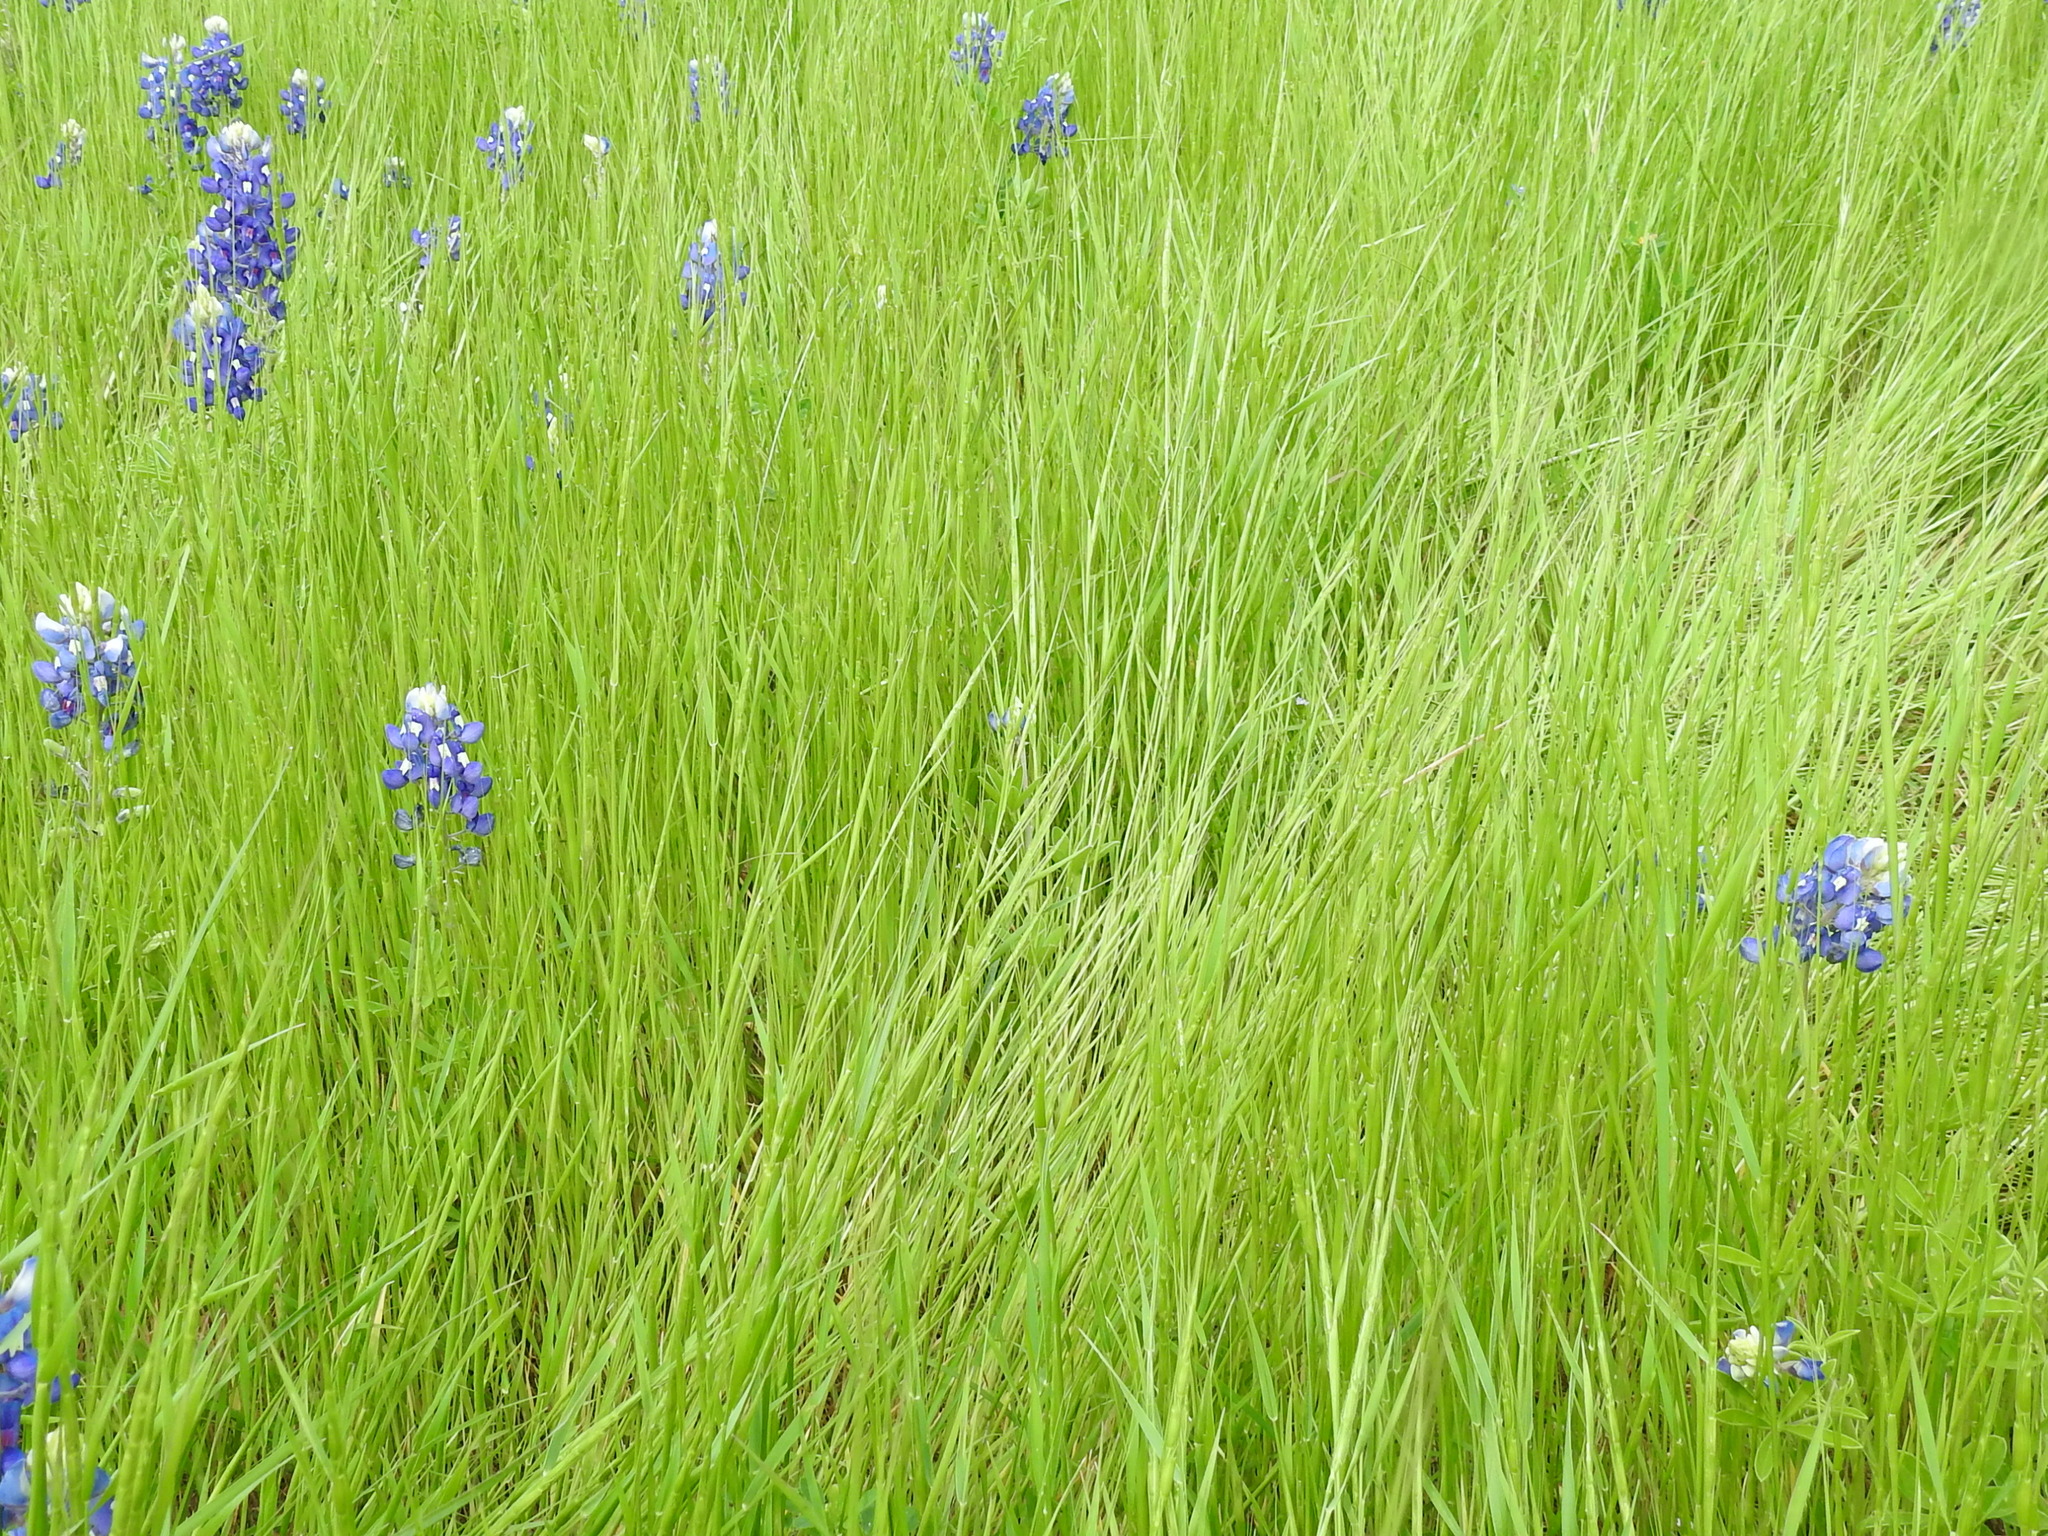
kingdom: Plantae
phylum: Tracheophyta
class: Liliopsida
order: Poales
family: Poaceae
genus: Aegilops
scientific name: Aegilops cylindrica
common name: Jointed goatgrass
